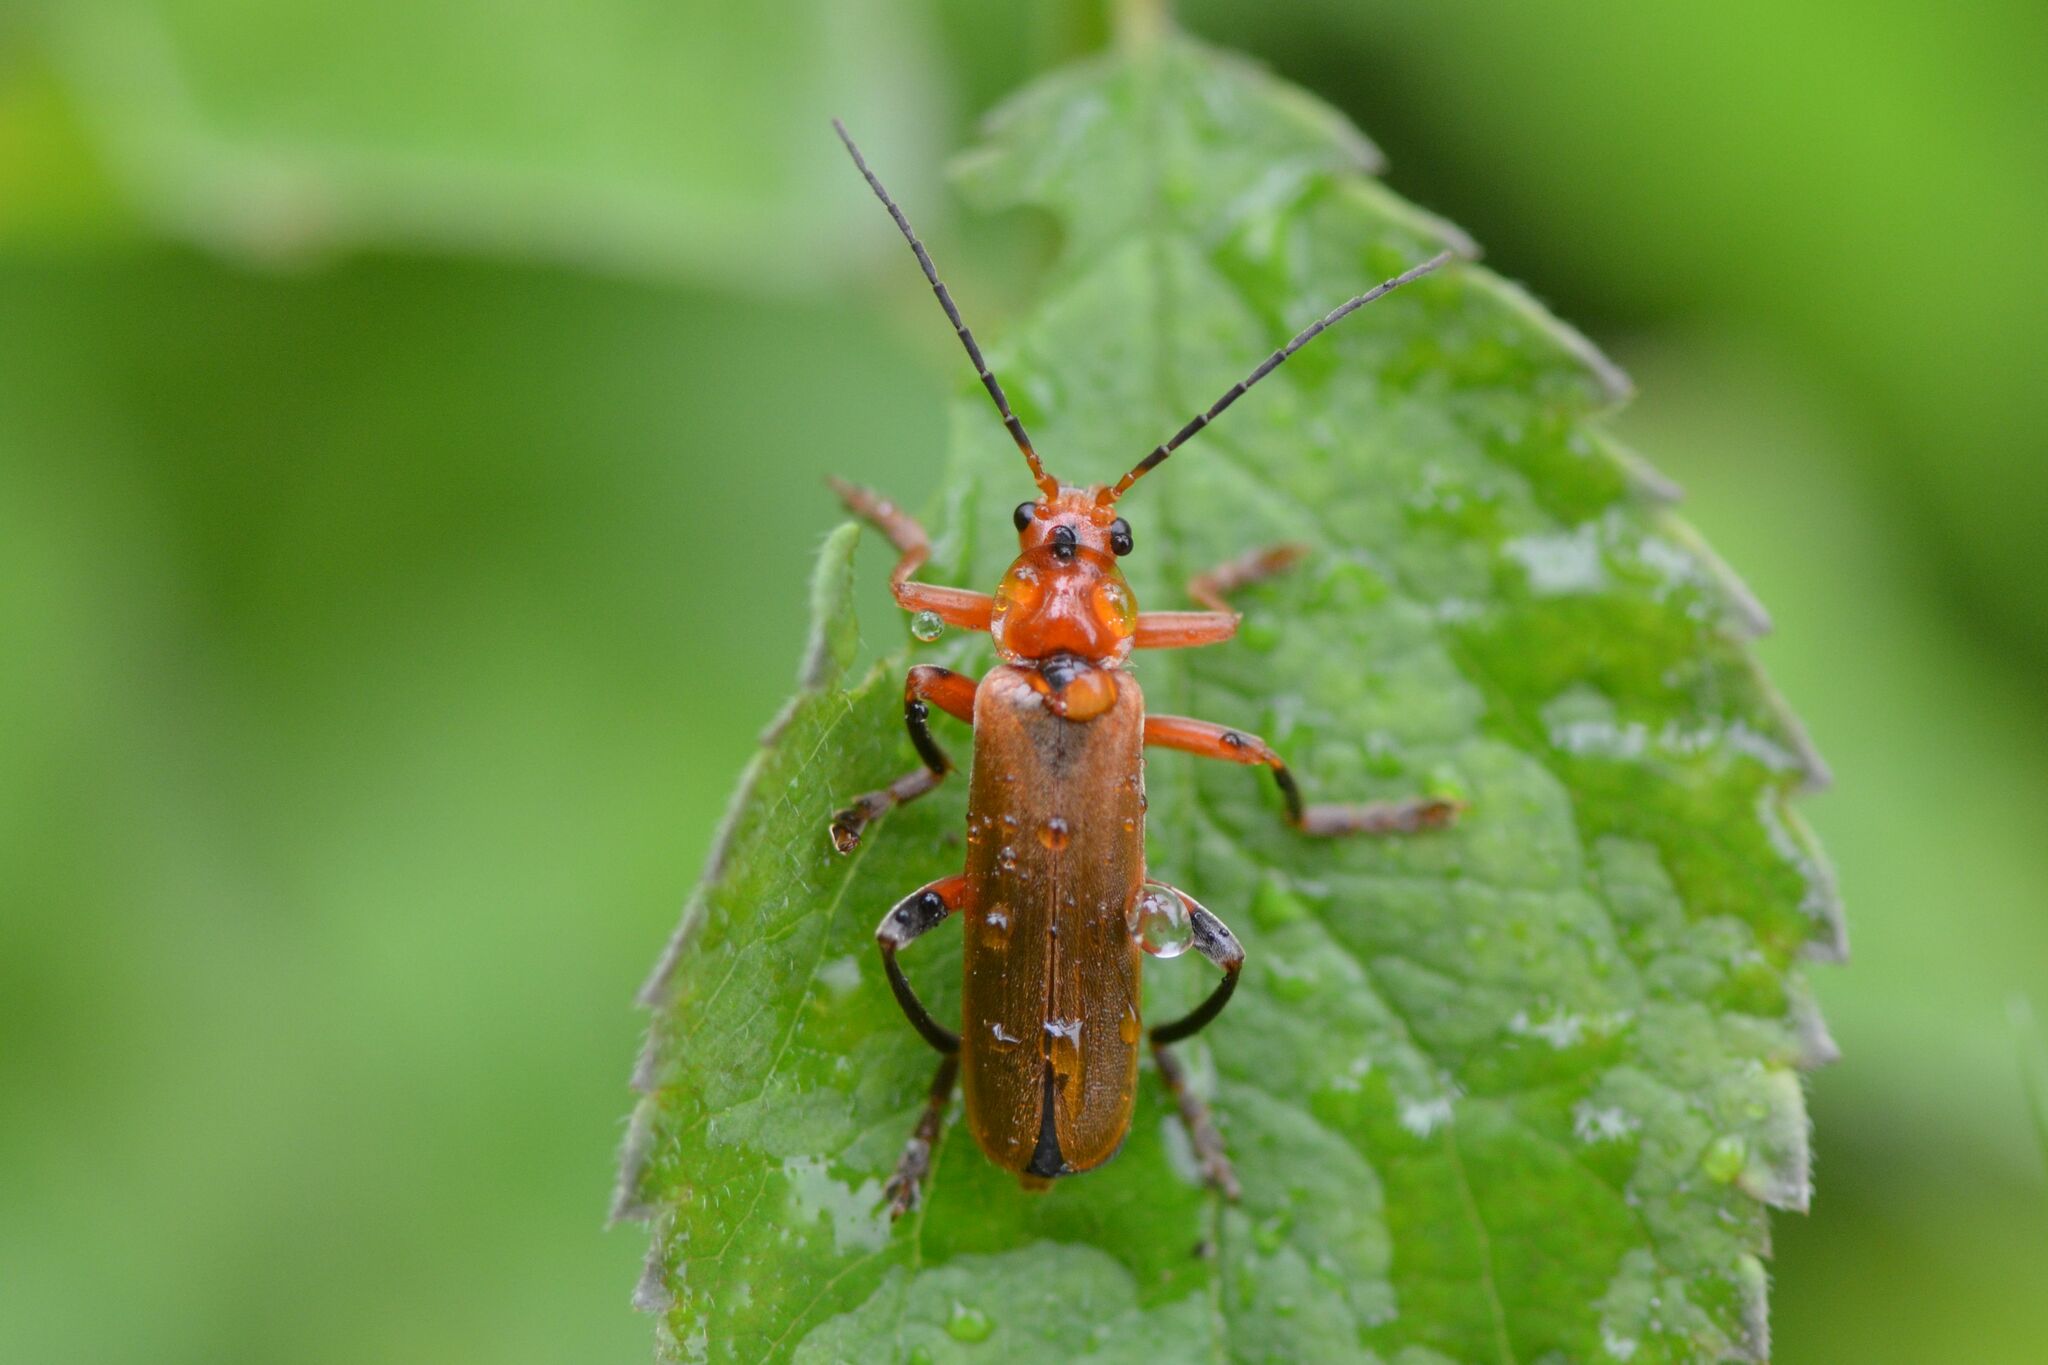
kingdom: Animalia
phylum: Arthropoda
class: Insecta
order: Coleoptera
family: Cantharidae
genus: Cantharis
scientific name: Cantharis livida
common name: Livid soldier beetle
